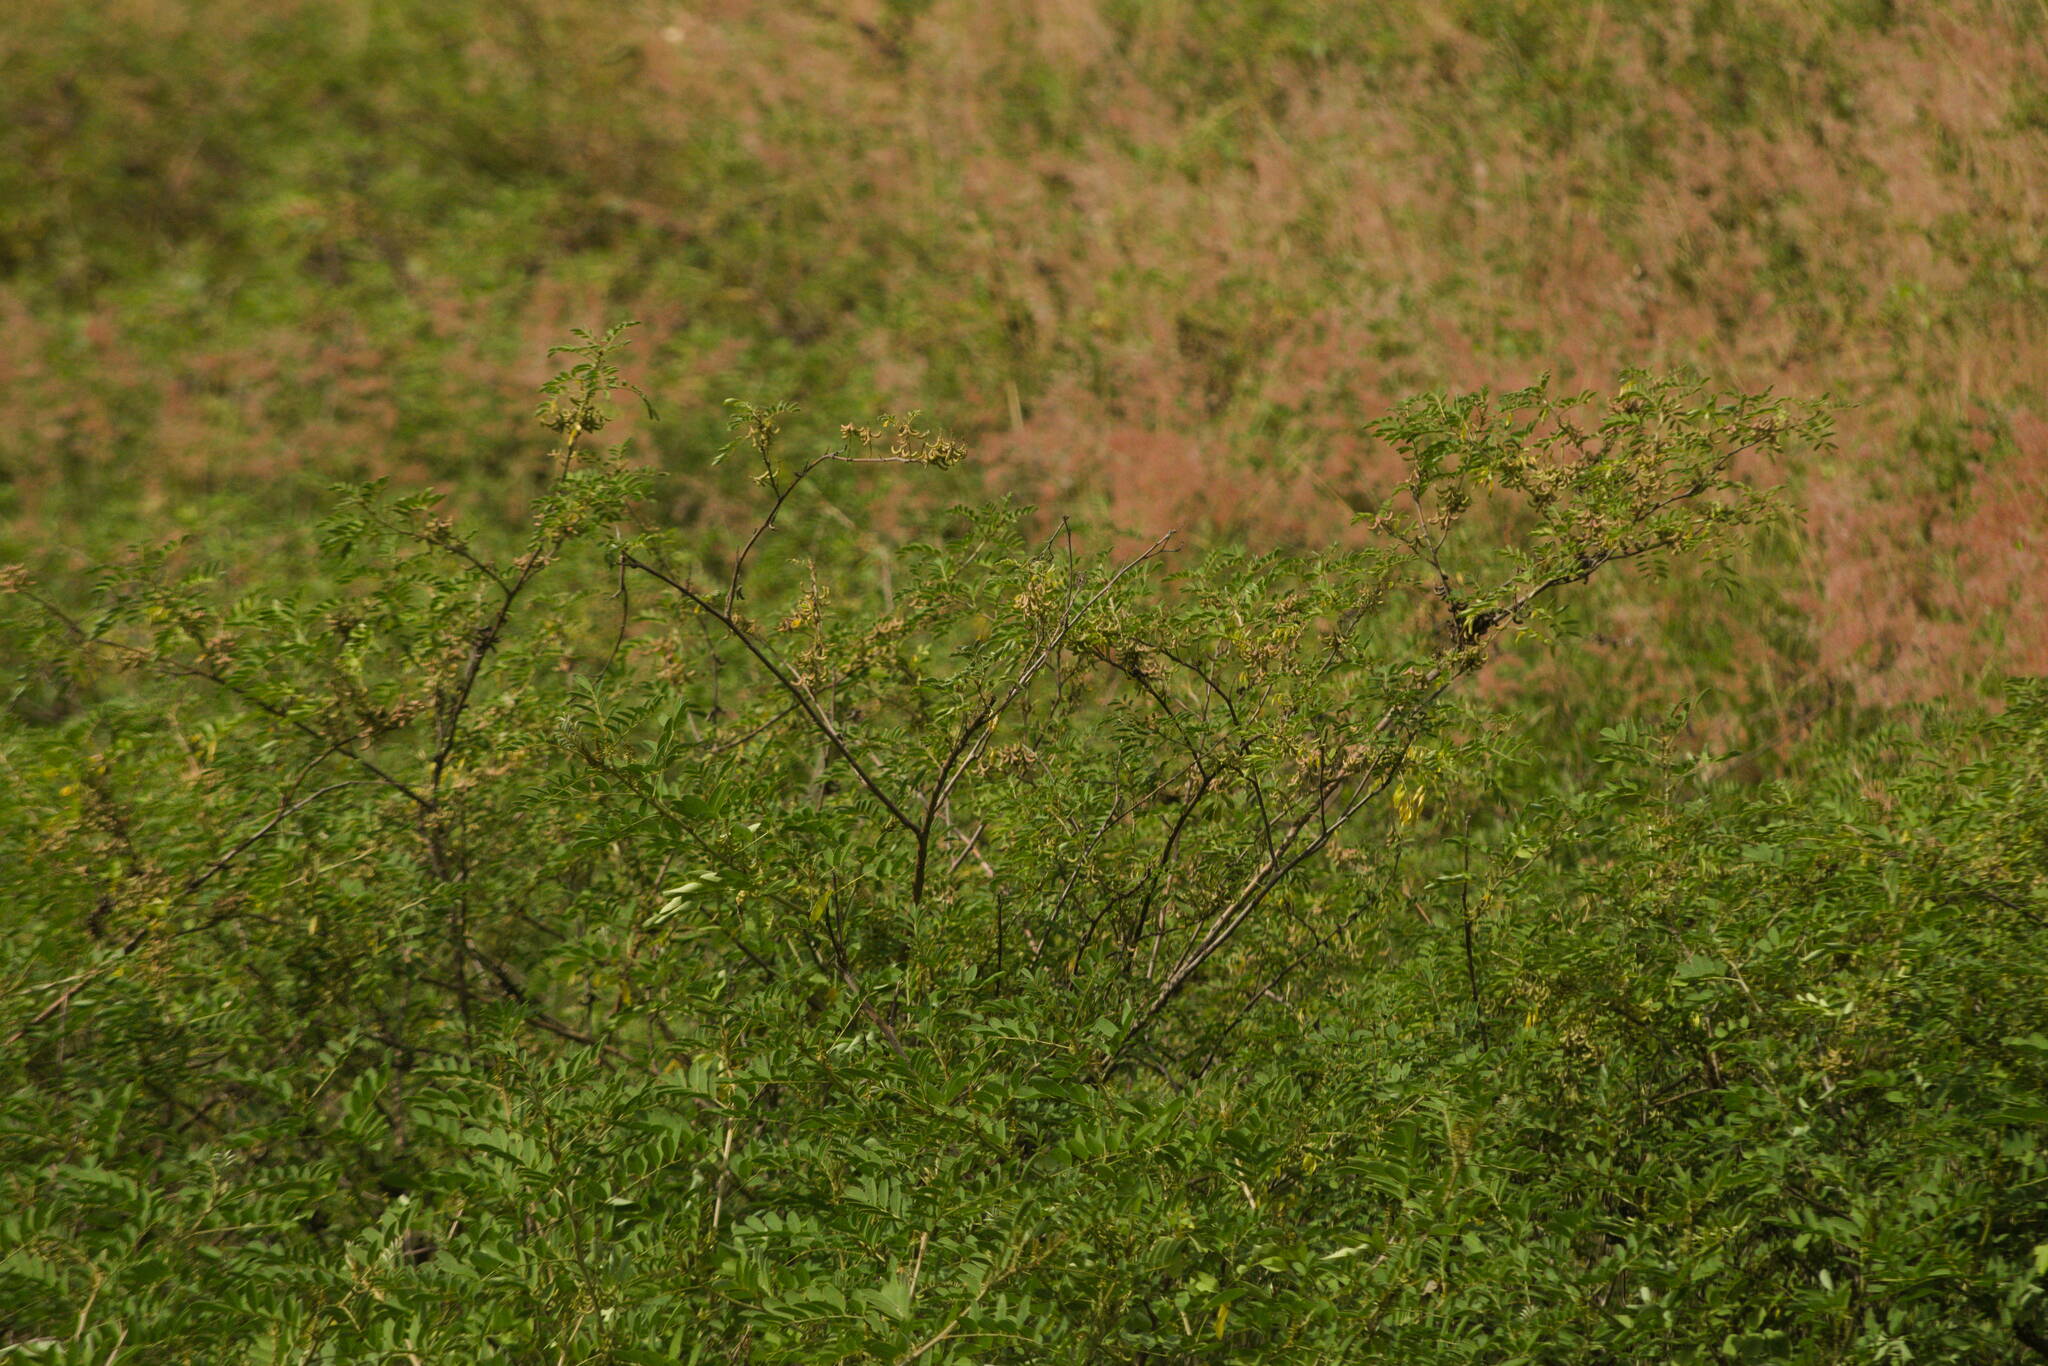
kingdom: Plantae
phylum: Tracheophyta
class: Magnoliopsida
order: Fabales
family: Fabaceae
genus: Indigofera
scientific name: Indigofera suffruticosa
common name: Anil de pasto
